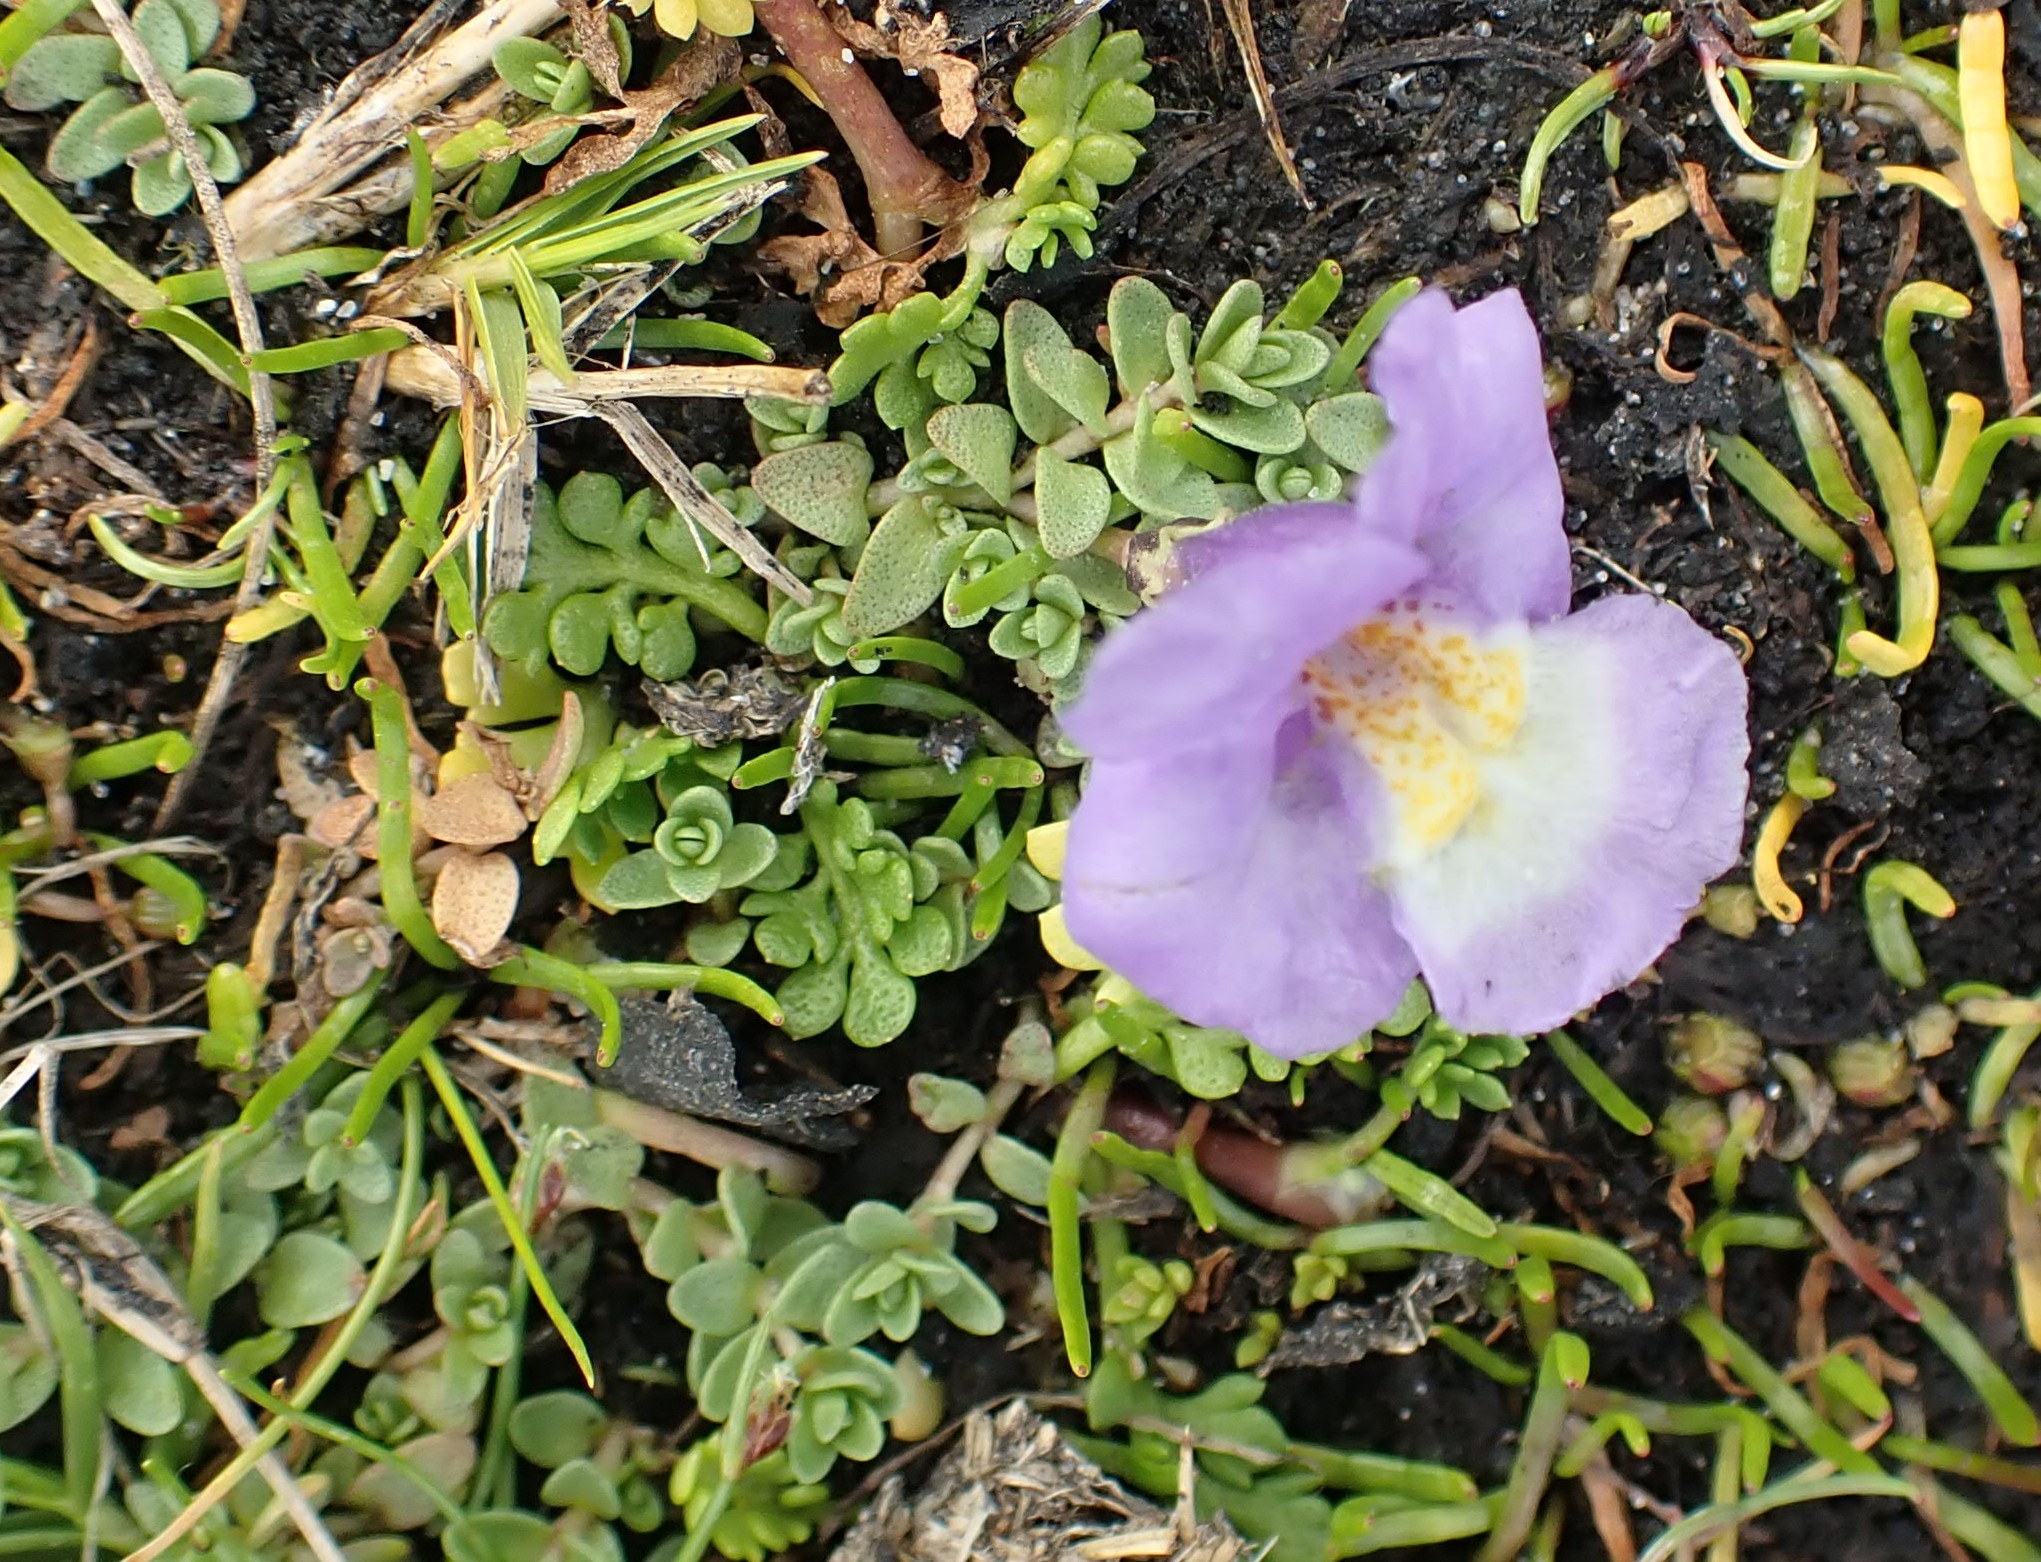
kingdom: Plantae
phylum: Tracheophyta
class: Magnoliopsida
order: Lamiales
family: Phrymaceae
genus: Thyridia
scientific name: Thyridia repens
